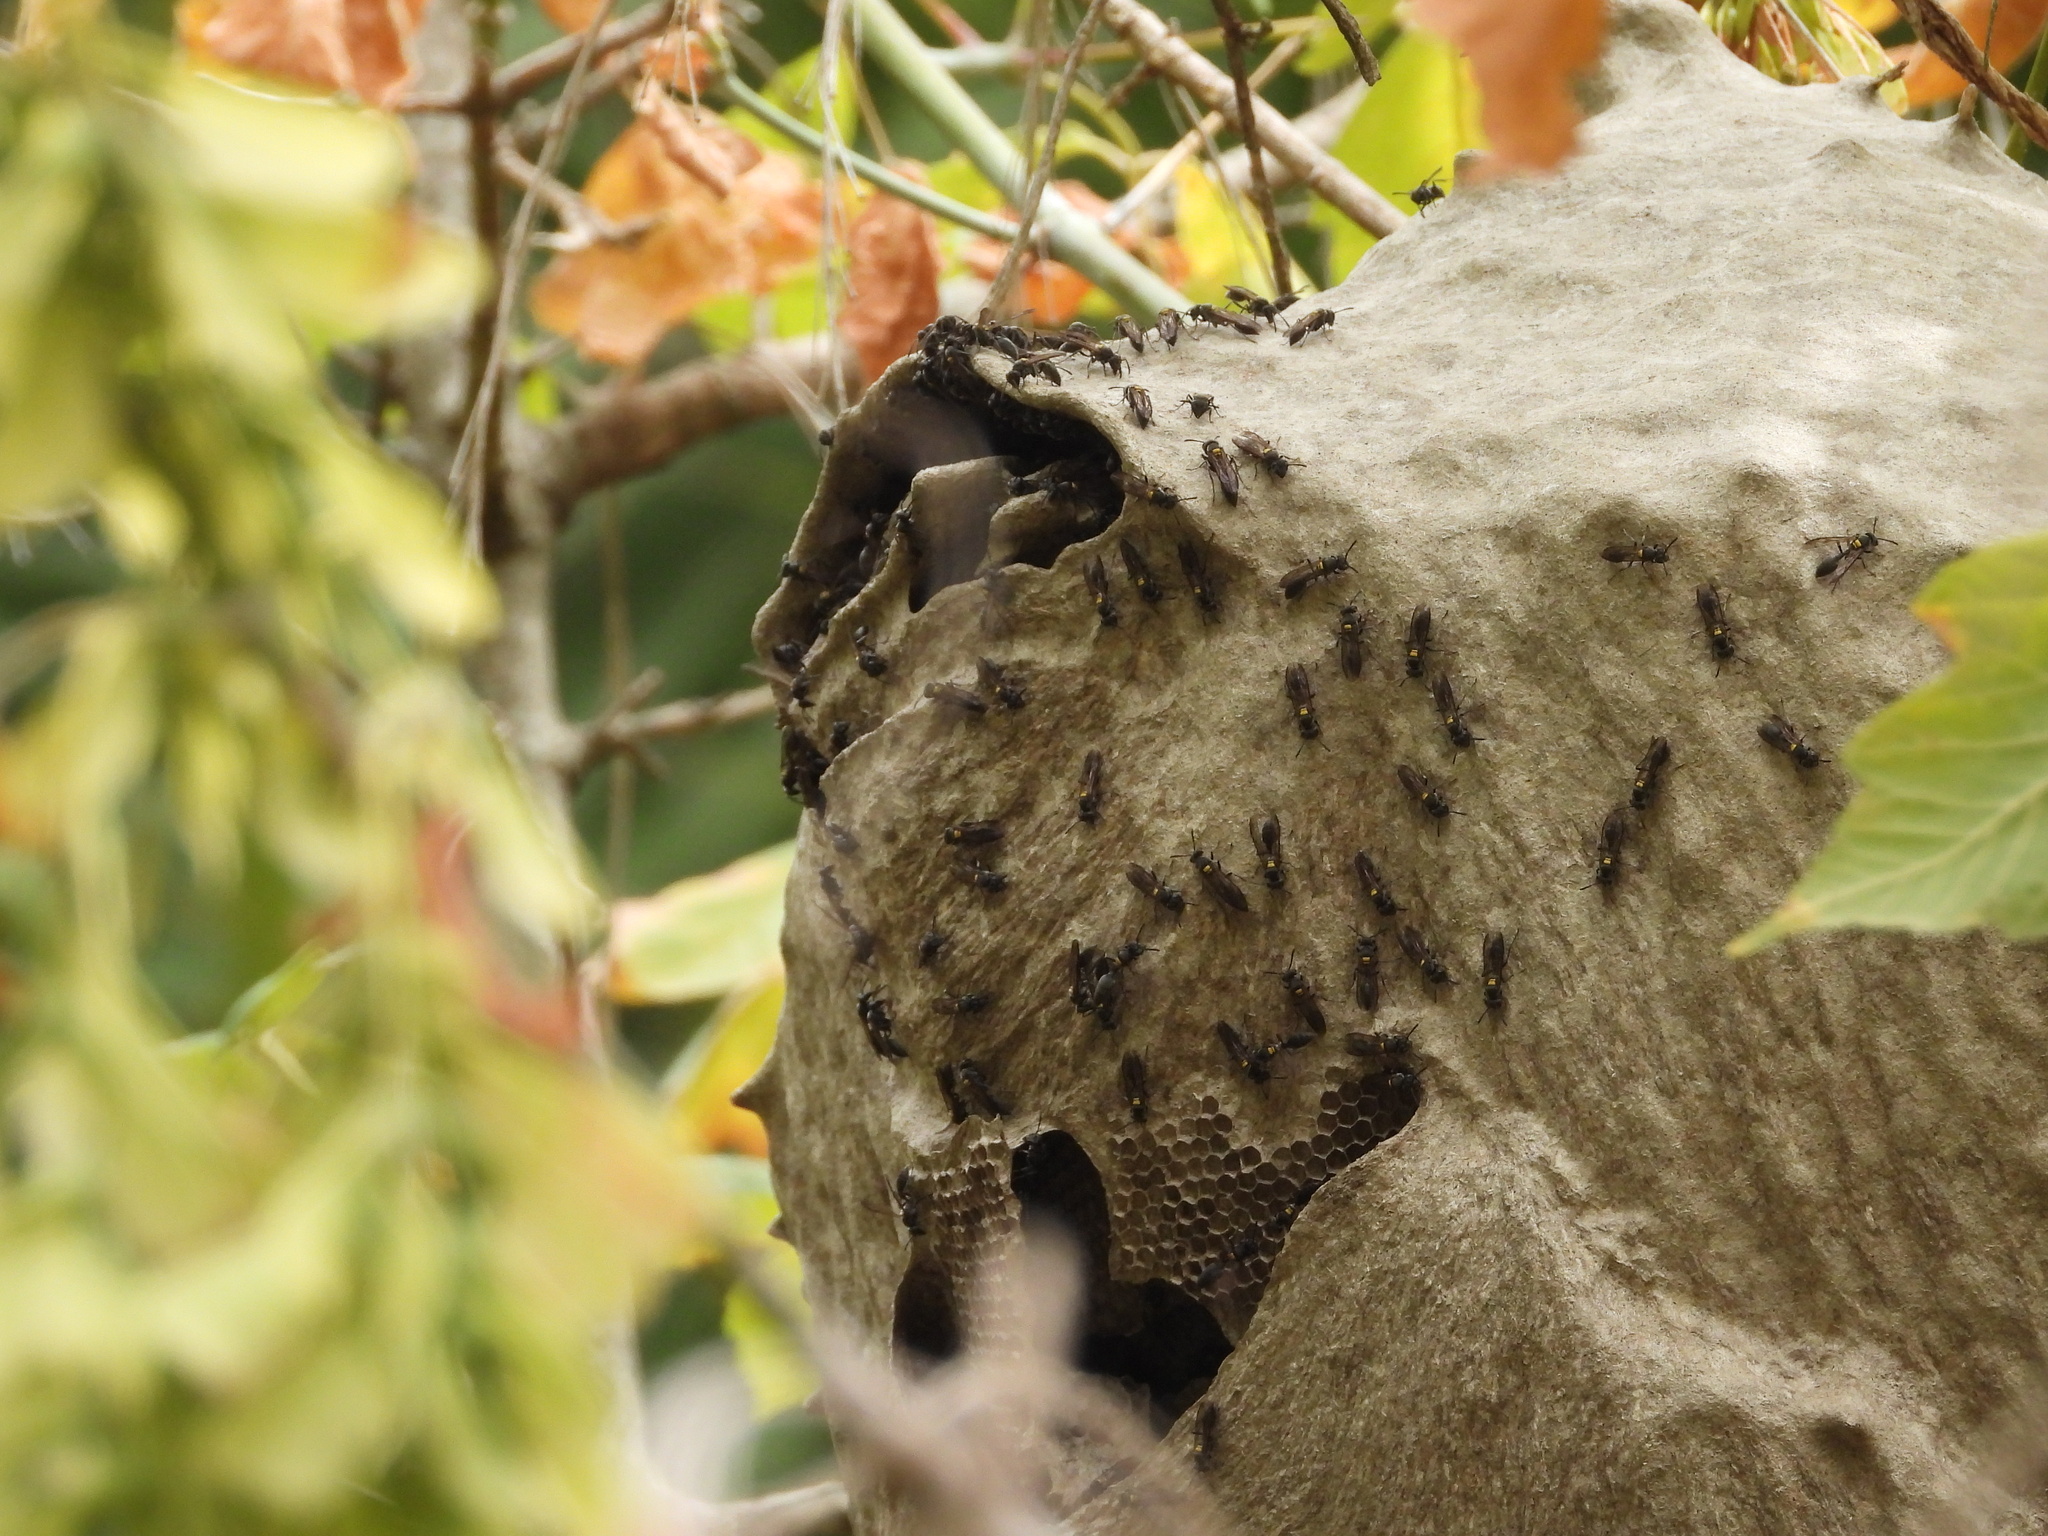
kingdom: Animalia
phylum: Arthropoda
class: Insecta
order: Hymenoptera
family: Eumenidae
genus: Polybia
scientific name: Polybia scutellaris
